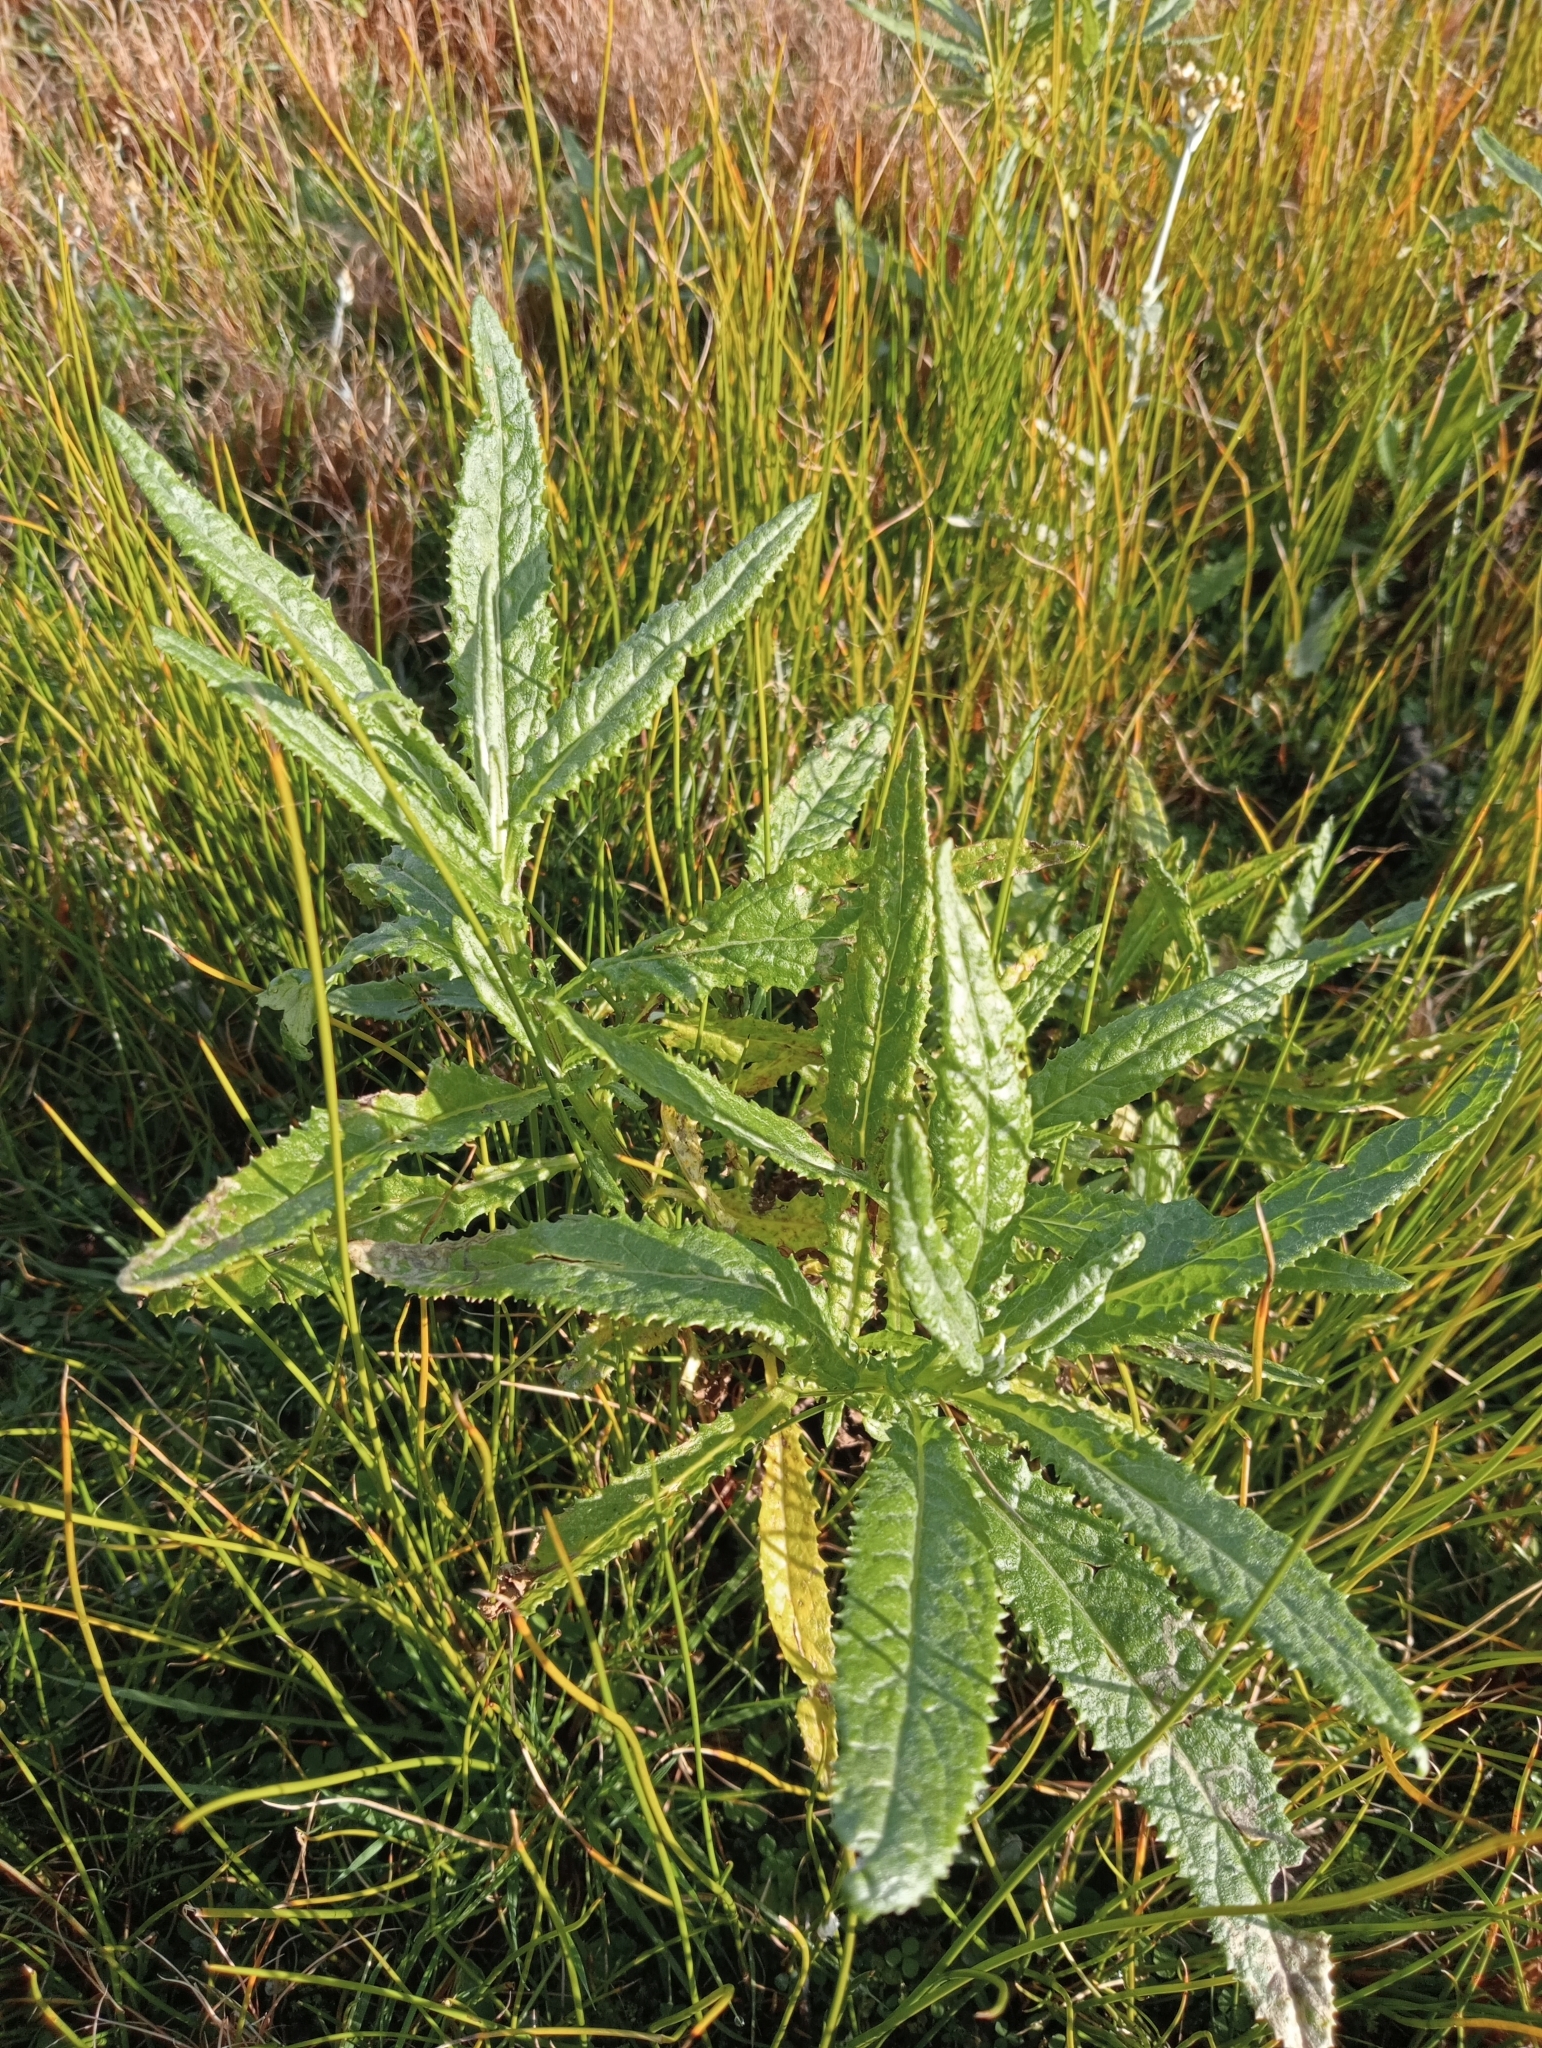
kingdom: Plantae
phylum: Tracheophyta
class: Magnoliopsida
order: Asterales
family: Asteraceae
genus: Senecio
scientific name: Senecio minimus
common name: Toothed fireweed
